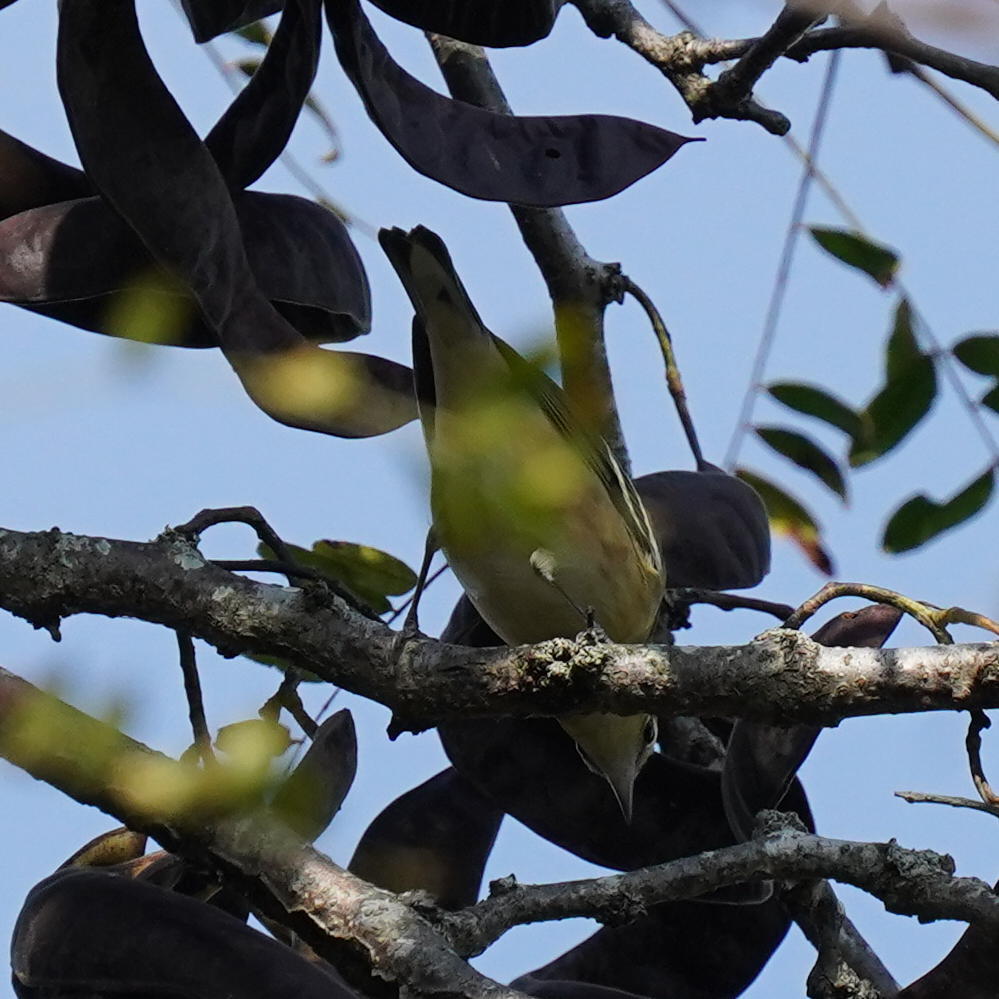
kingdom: Animalia
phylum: Chordata
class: Aves
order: Passeriformes
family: Parulidae
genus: Setophaga
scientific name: Setophaga castanea
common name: Bay-breasted warbler
